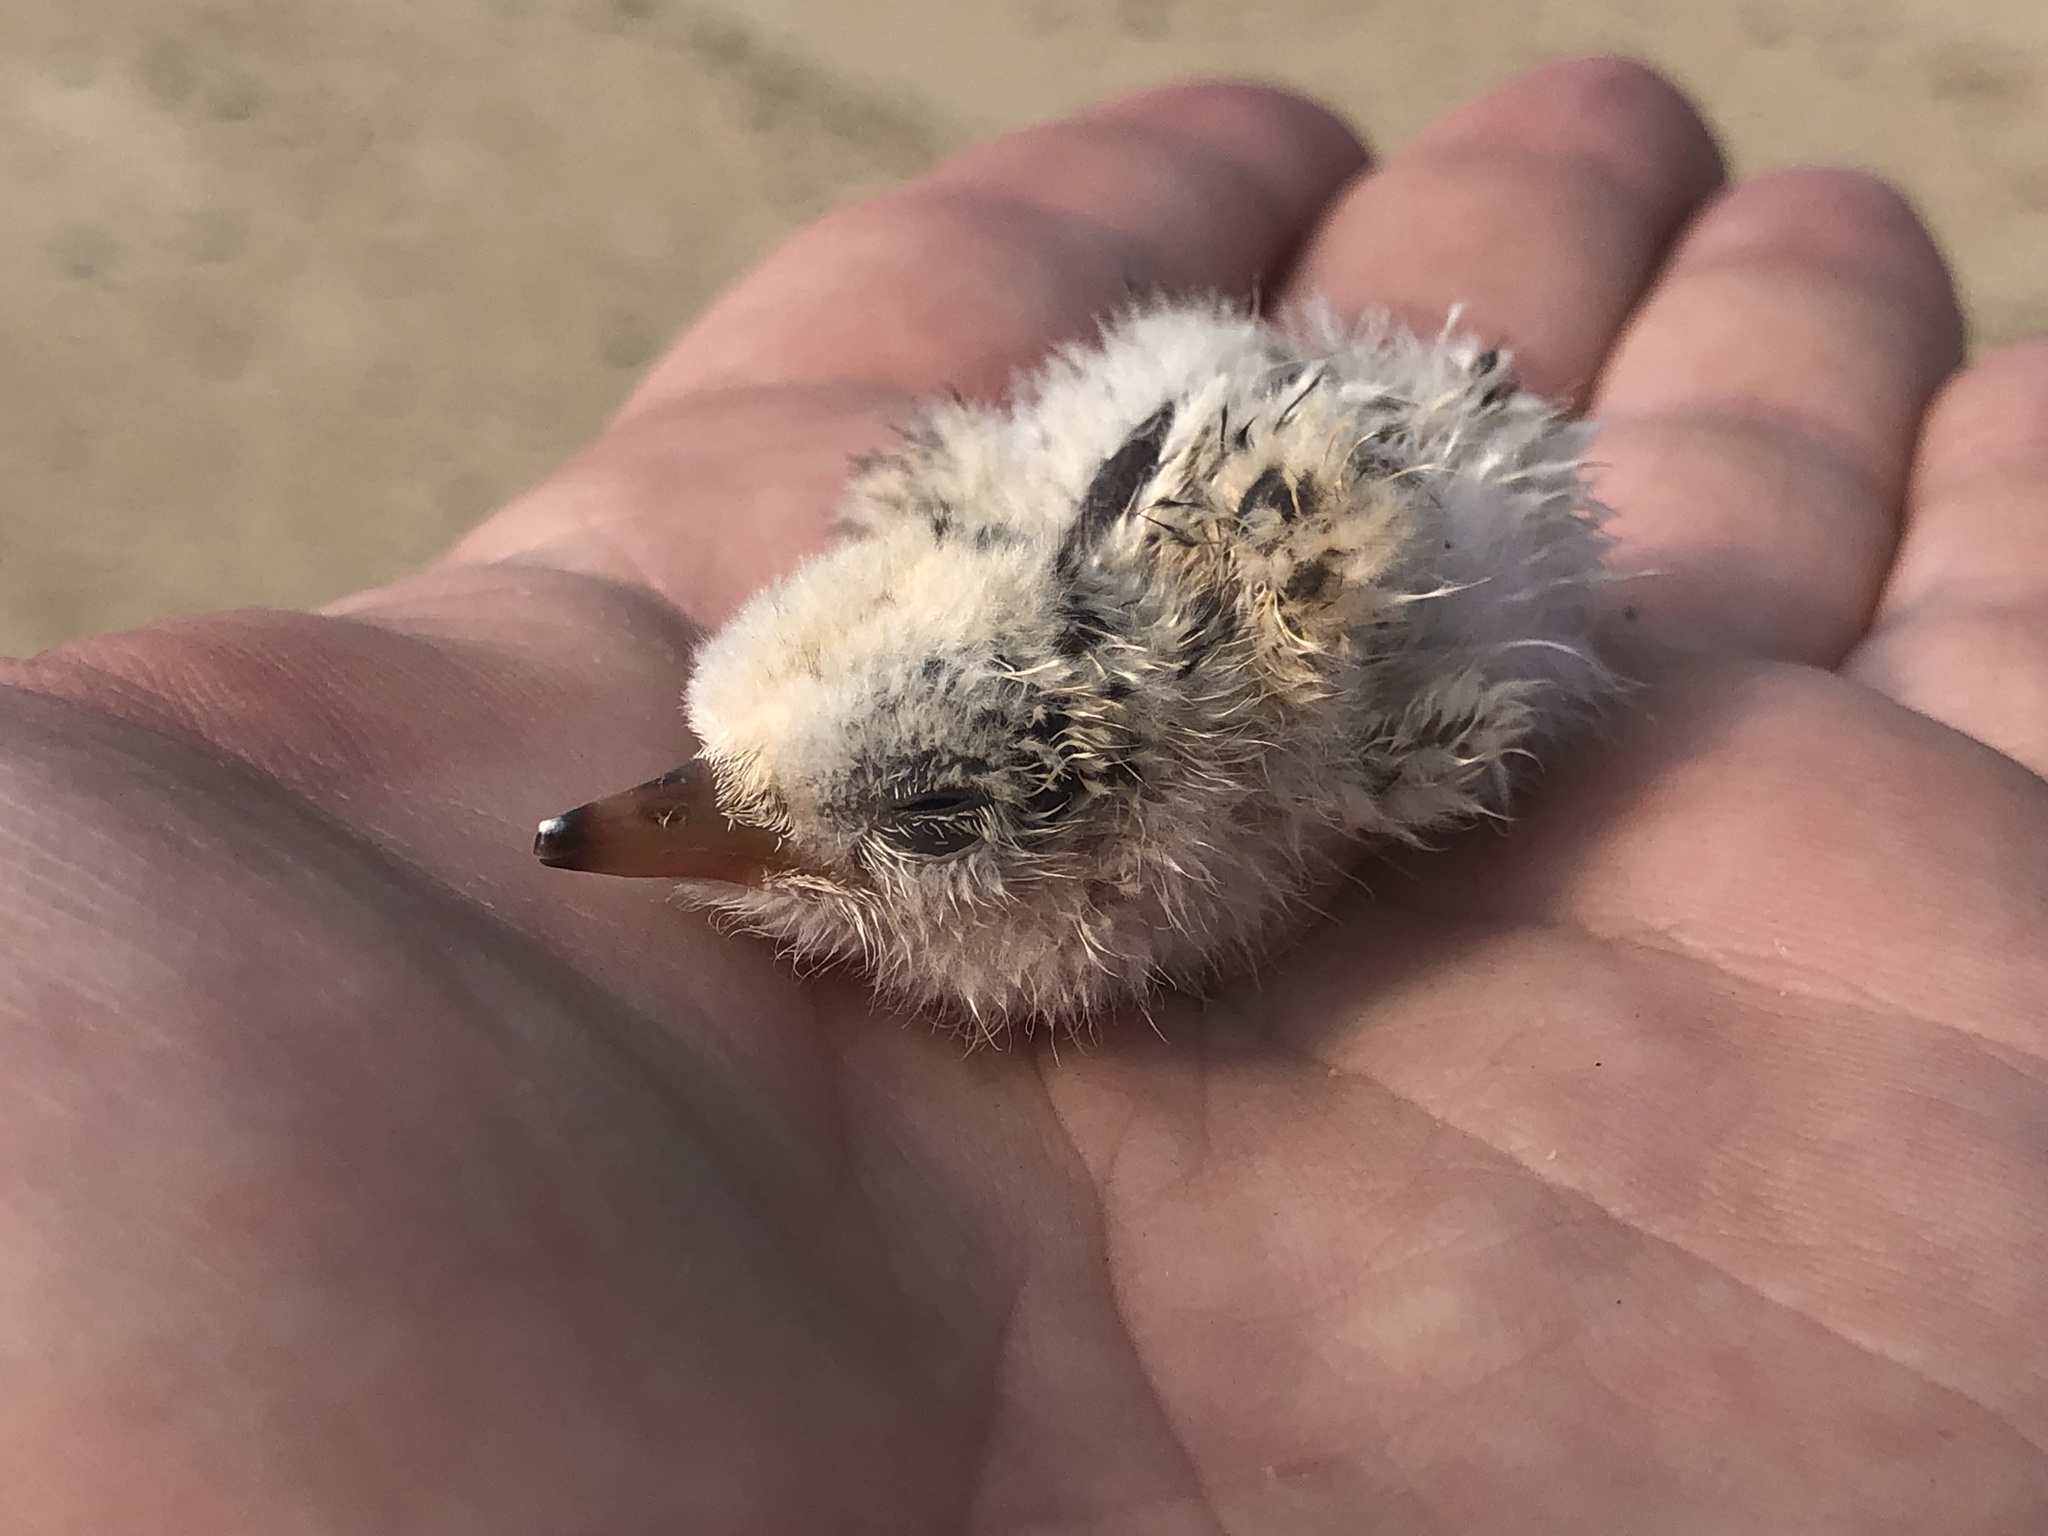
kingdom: Animalia
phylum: Chordata
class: Aves
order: Charadriiformes
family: Laridae
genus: Sternula
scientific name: Sternula antillarum
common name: Least tern
